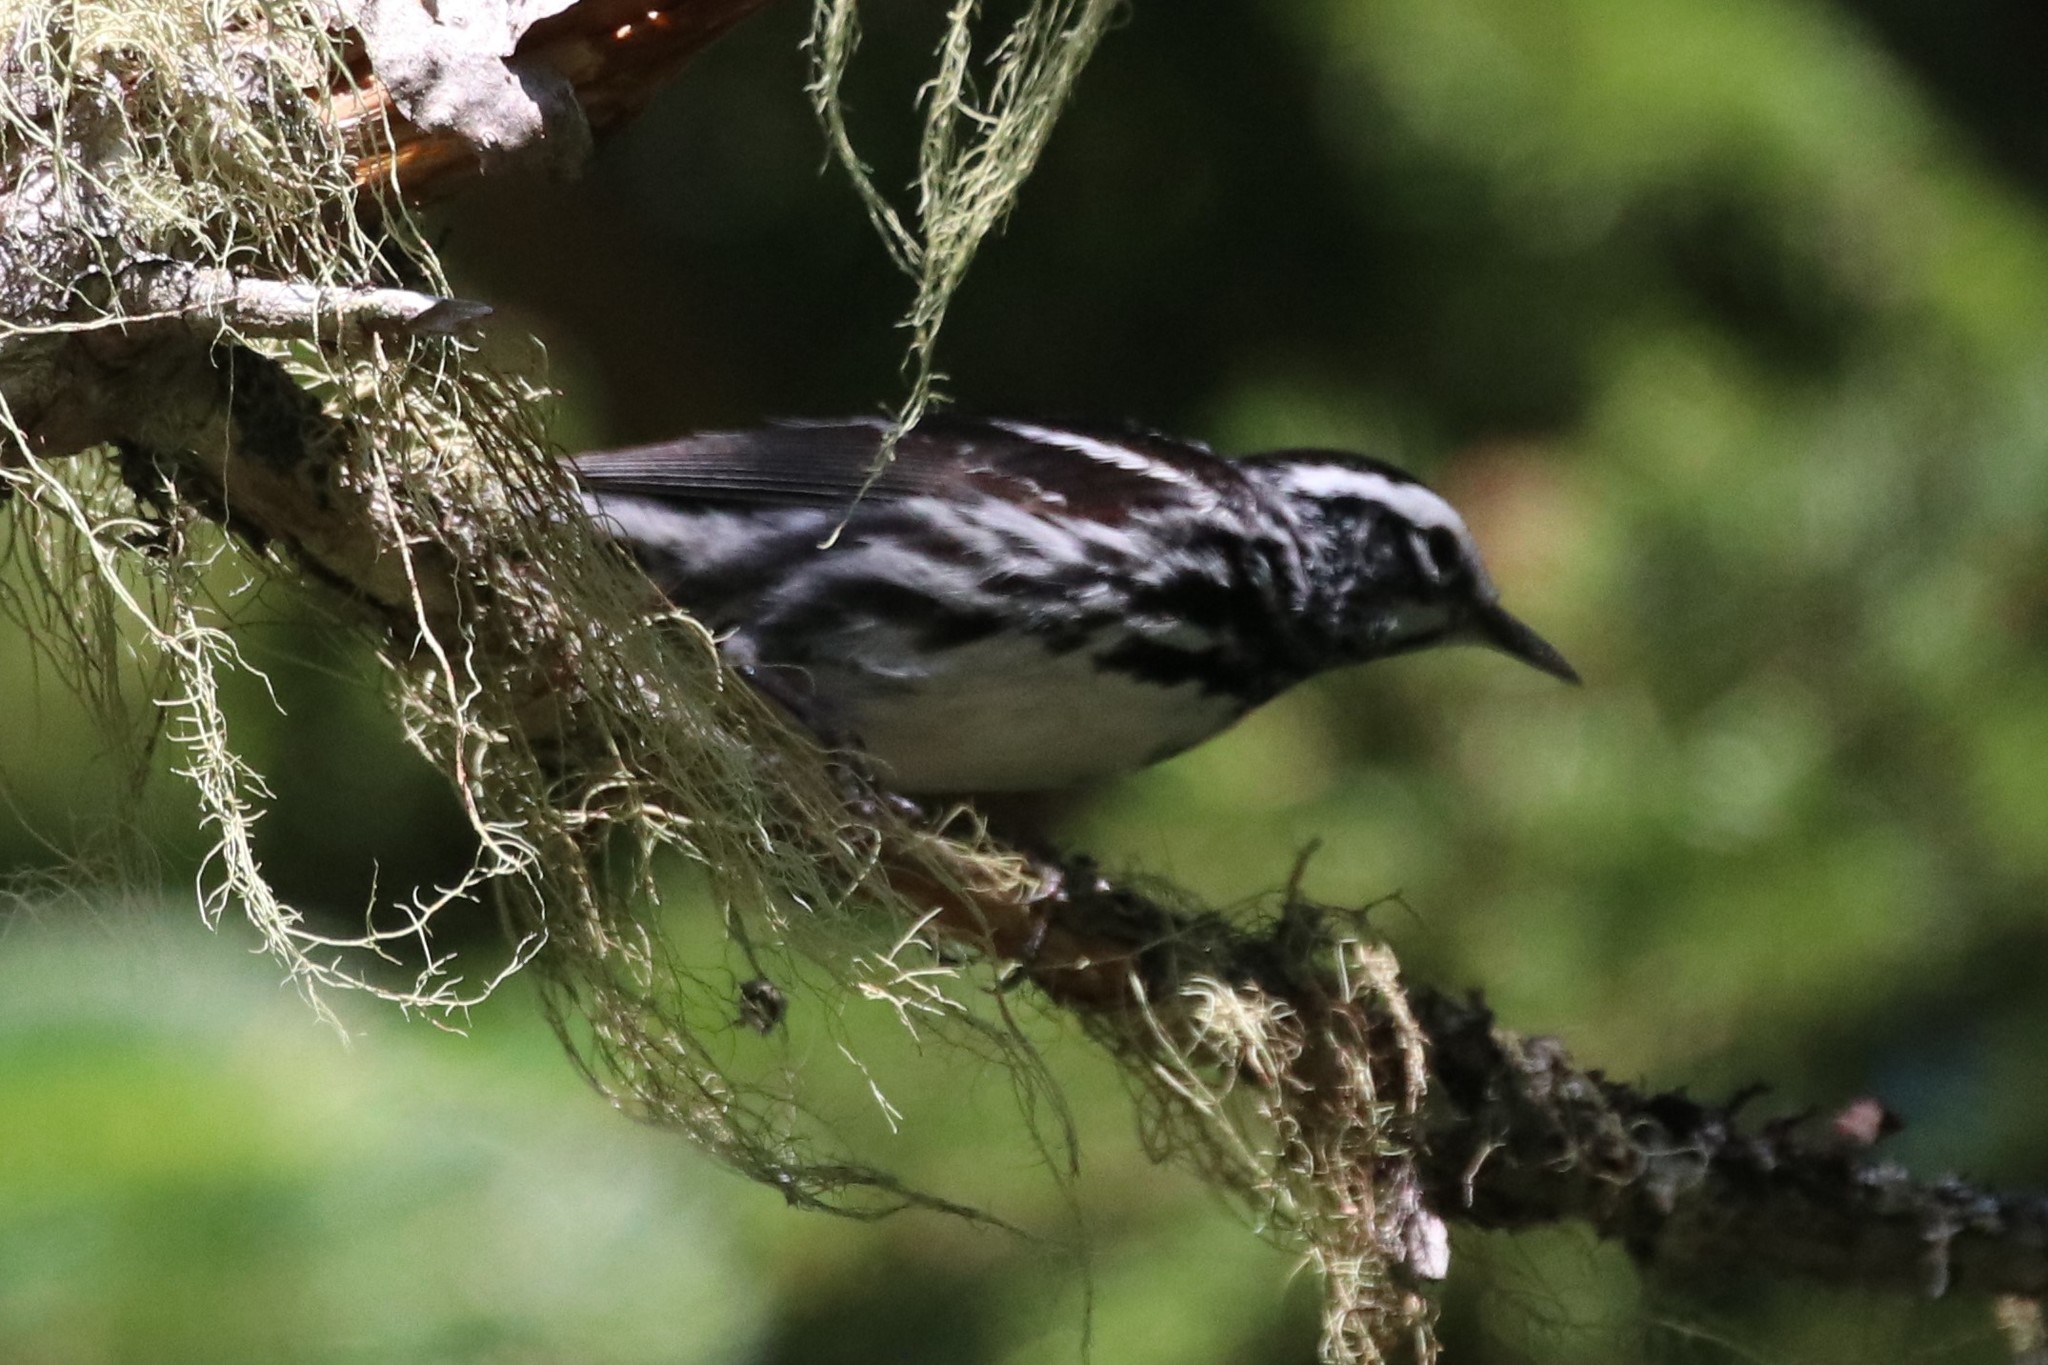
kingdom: Animalia
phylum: Chordata
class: Aves
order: Passeriformes
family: Parulidae
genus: Mniotilta
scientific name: Mniotilta varia
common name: Black-and-white warbler
